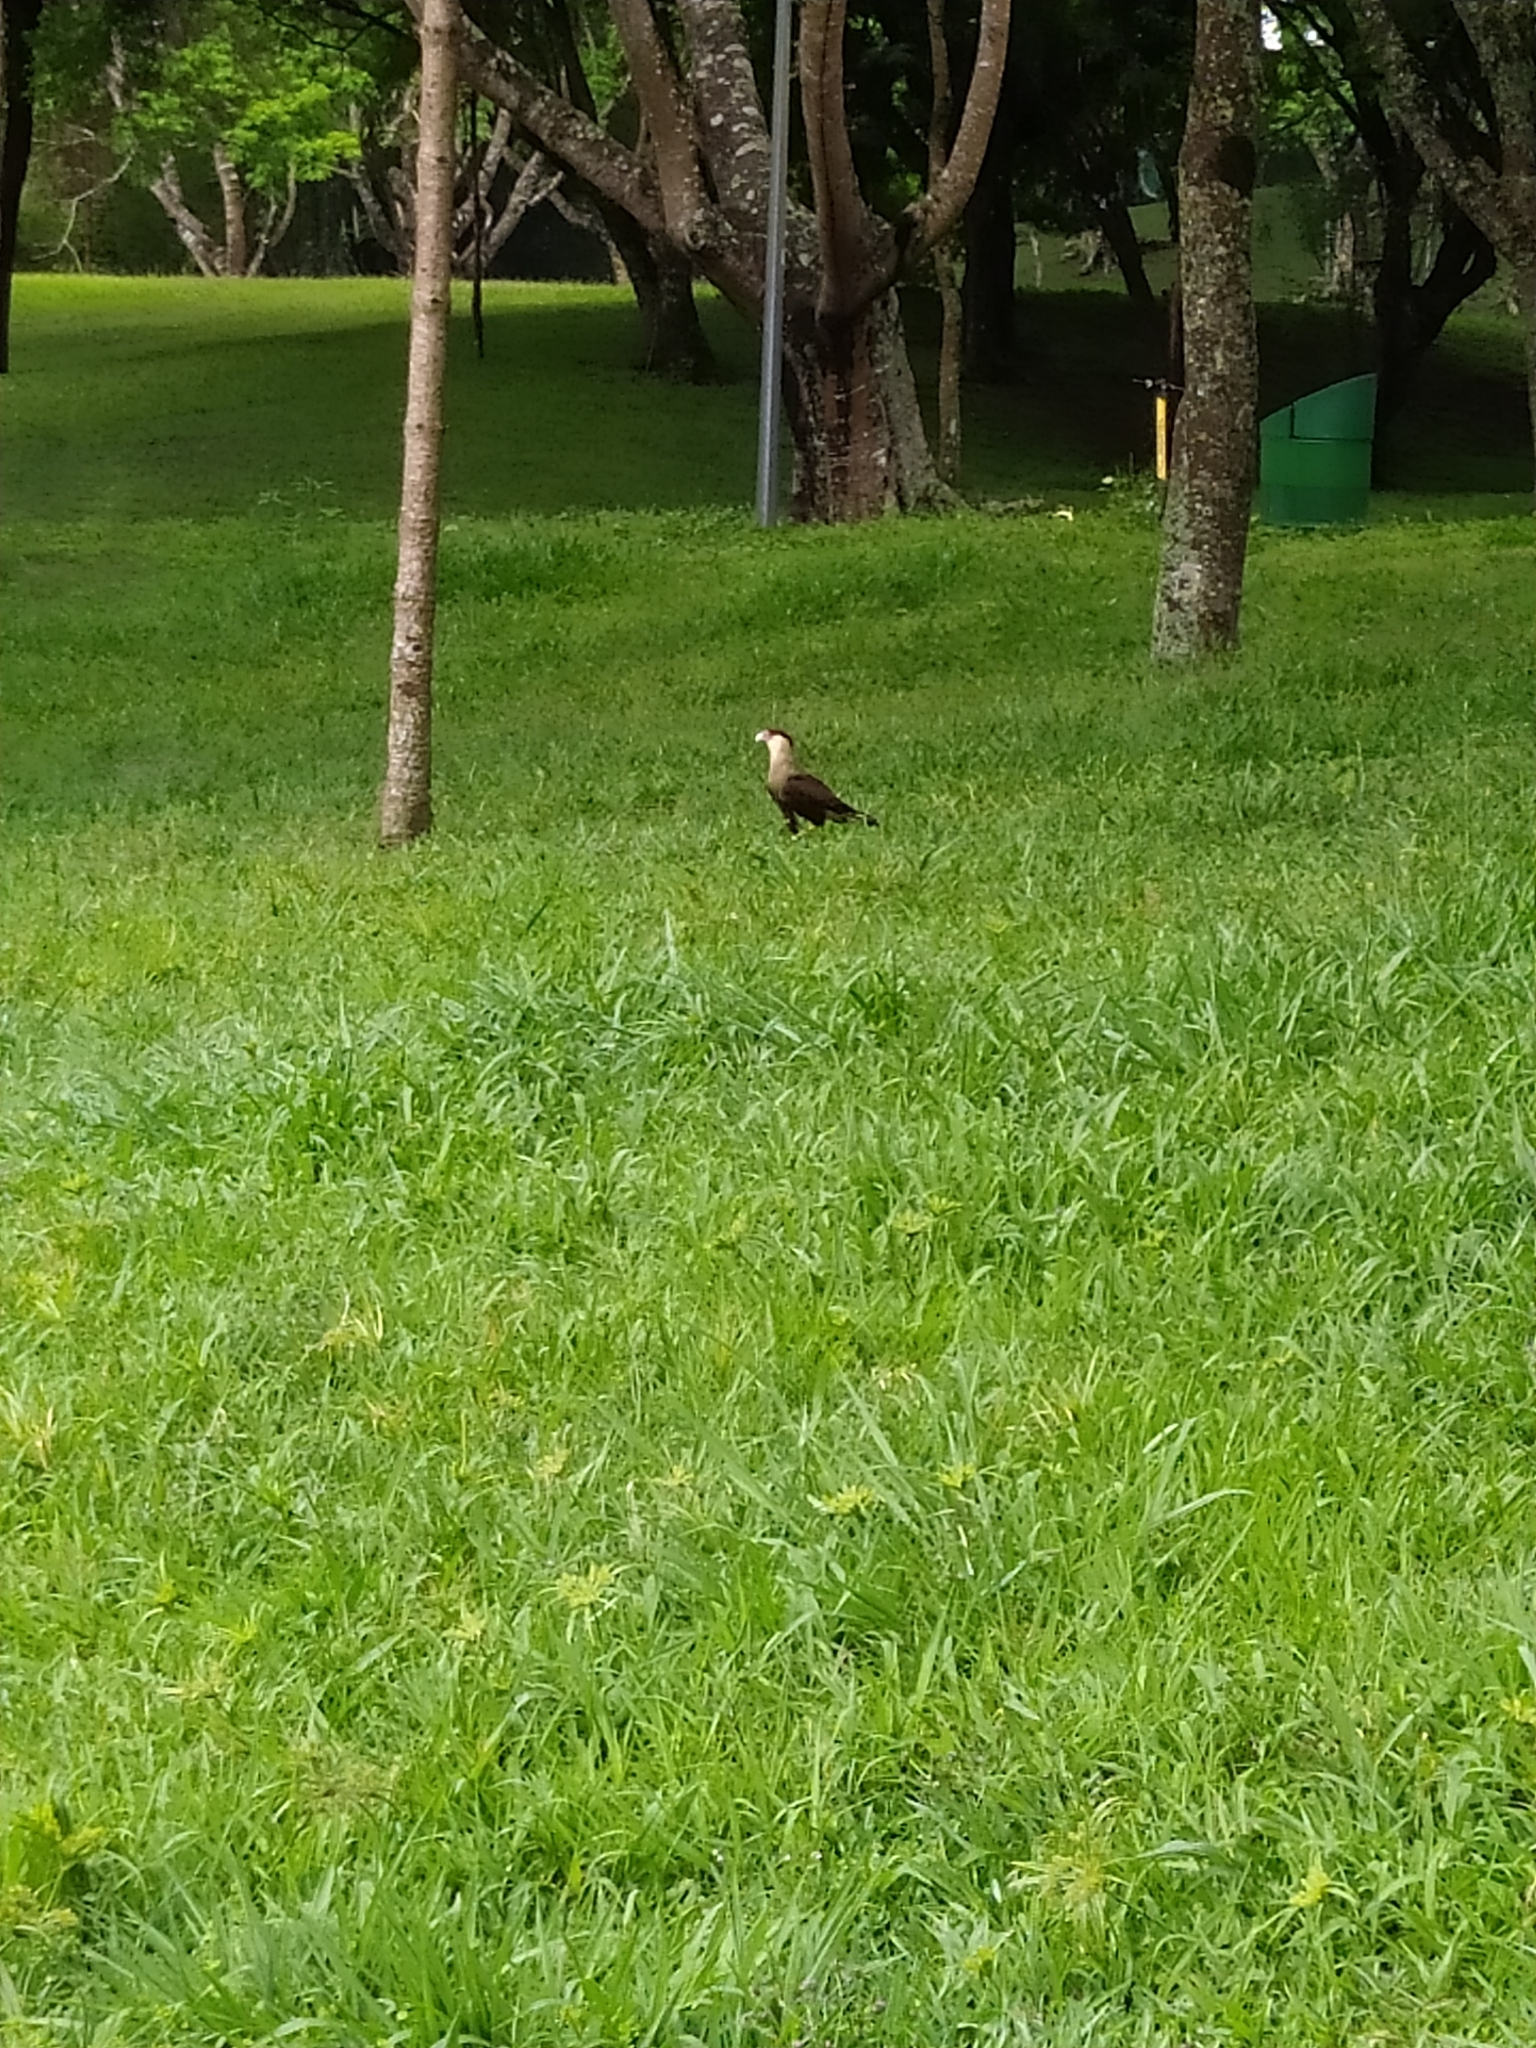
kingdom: Animalia
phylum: Chordata
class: Aves
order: Falconiformes
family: Falconidae
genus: Caracara
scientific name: Caracara plancus
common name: Southern caracara
